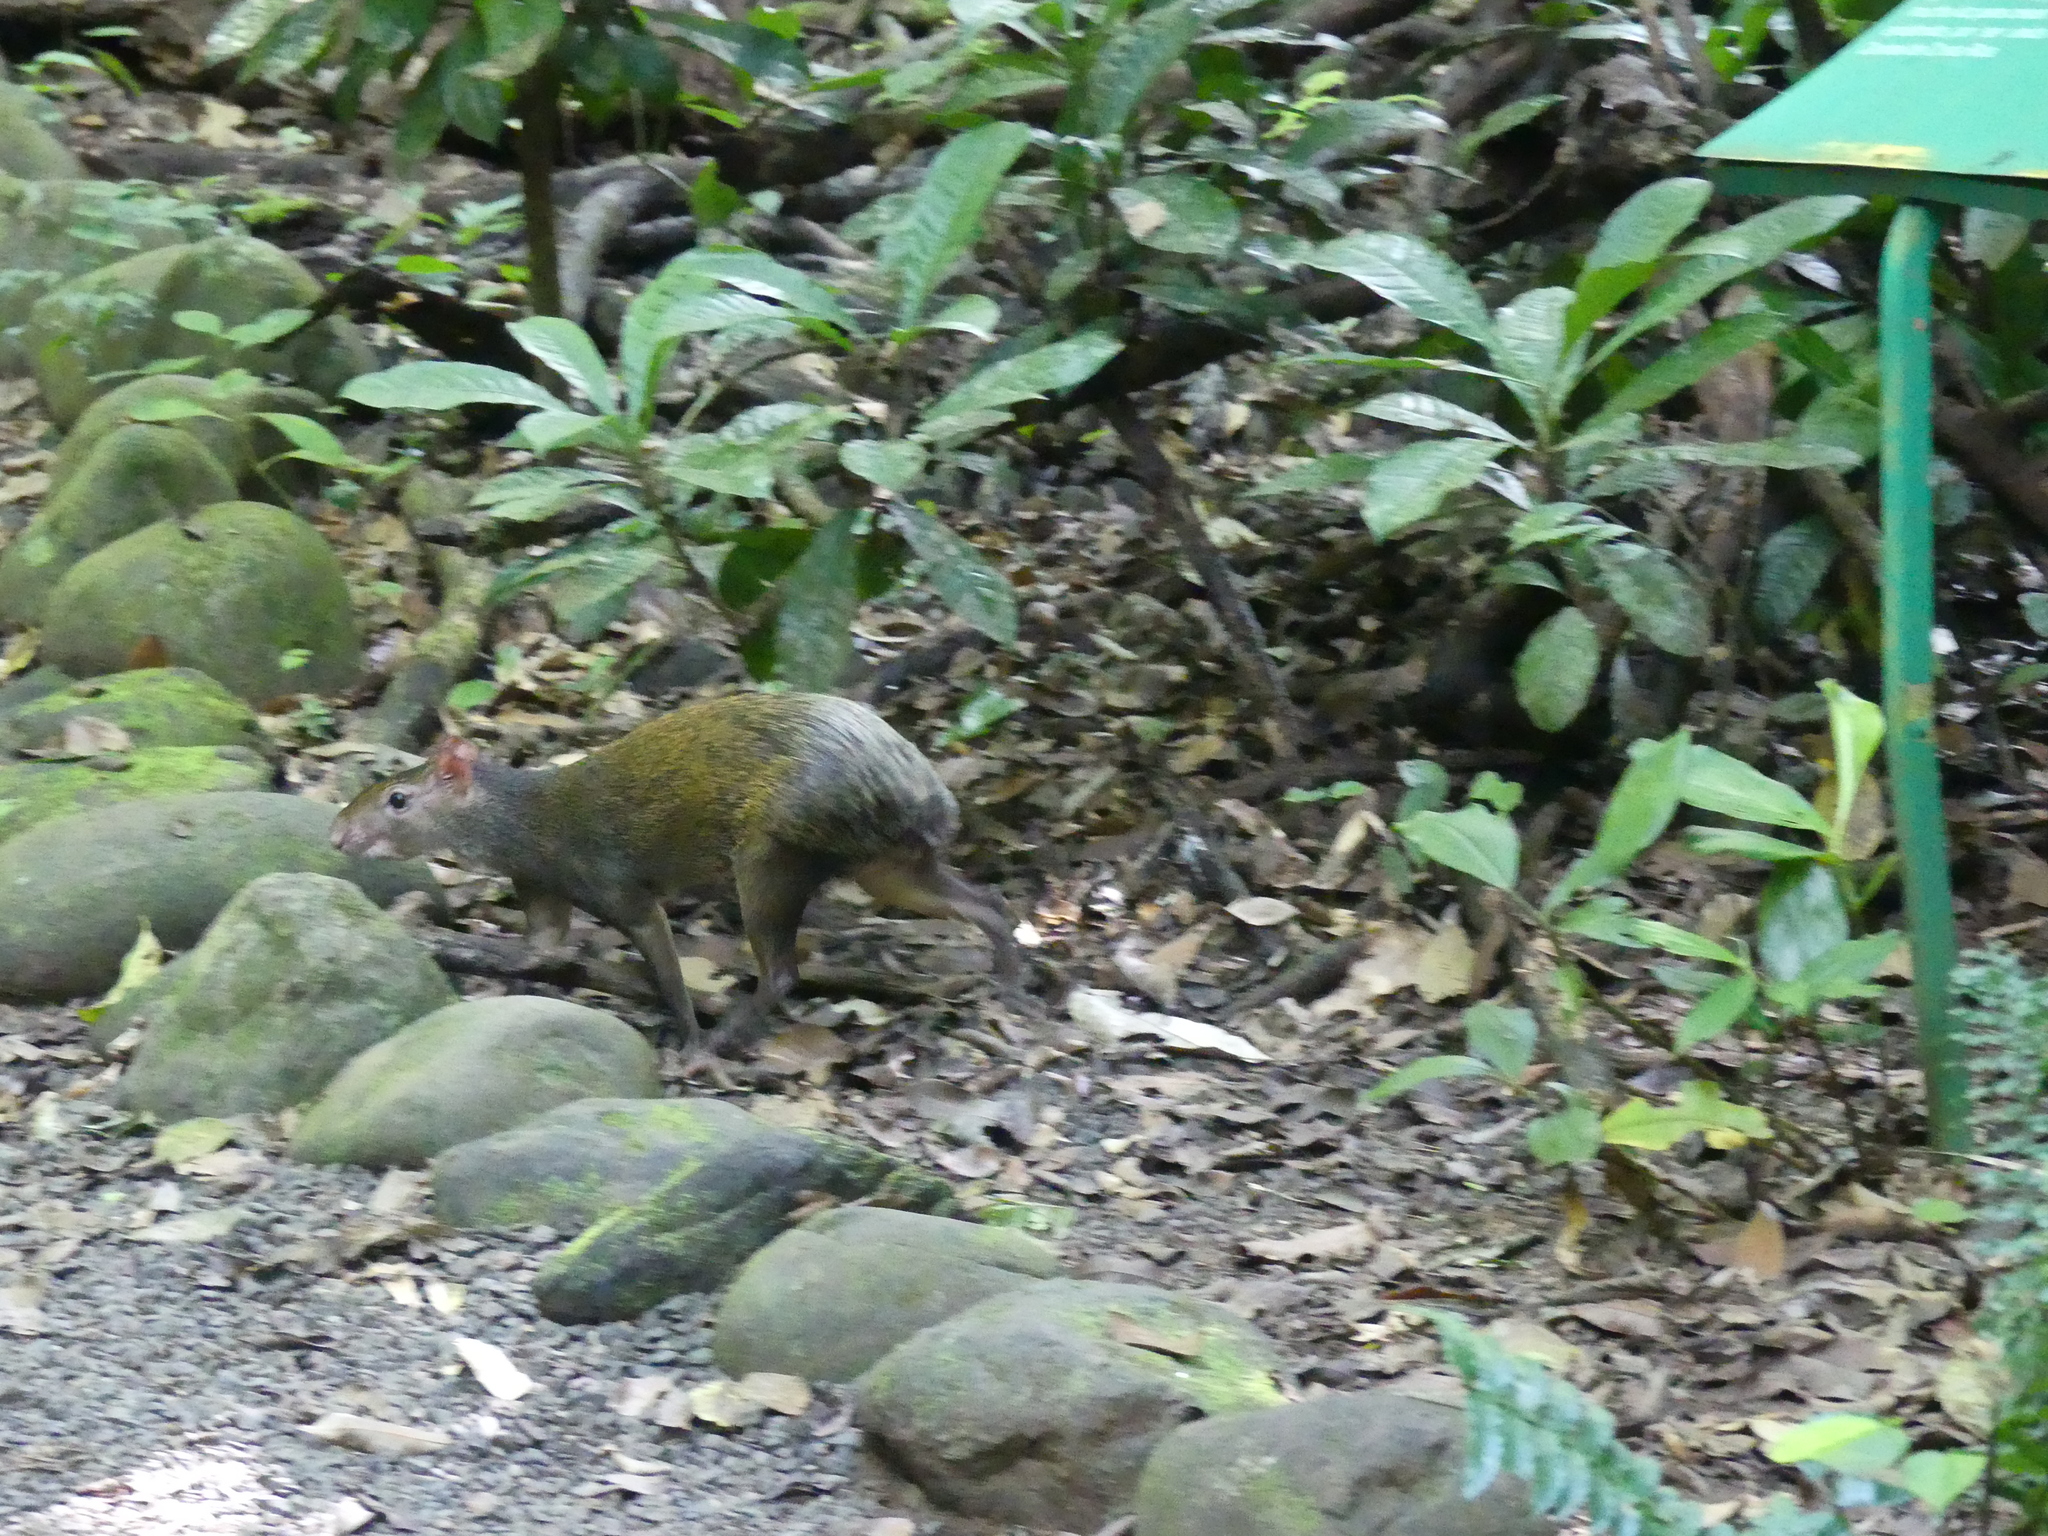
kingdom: Animalia
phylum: Chordata
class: Mammalia
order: Rodentia
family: Dasyproctidae
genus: Dasyprocta
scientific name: Dasyprocta punctata
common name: Central american agouti
